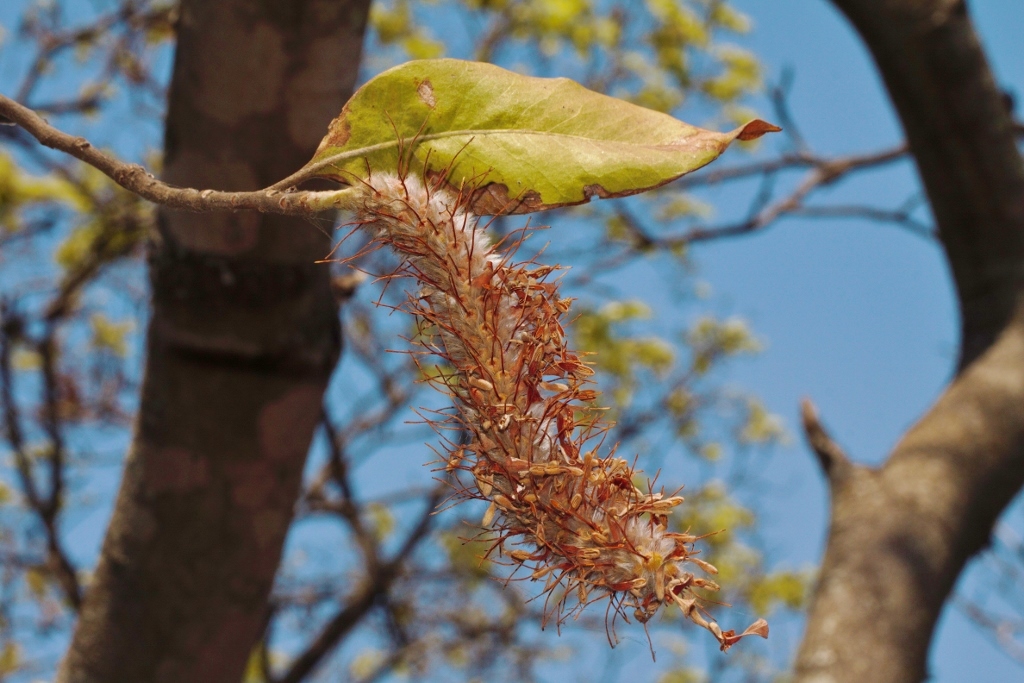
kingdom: Plantae
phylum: Tracheophyta
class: Magnoliopsida
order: Proteales
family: Proteaceae
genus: Faurea
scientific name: Faurea rochetiana
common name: Broad-leaved beech
